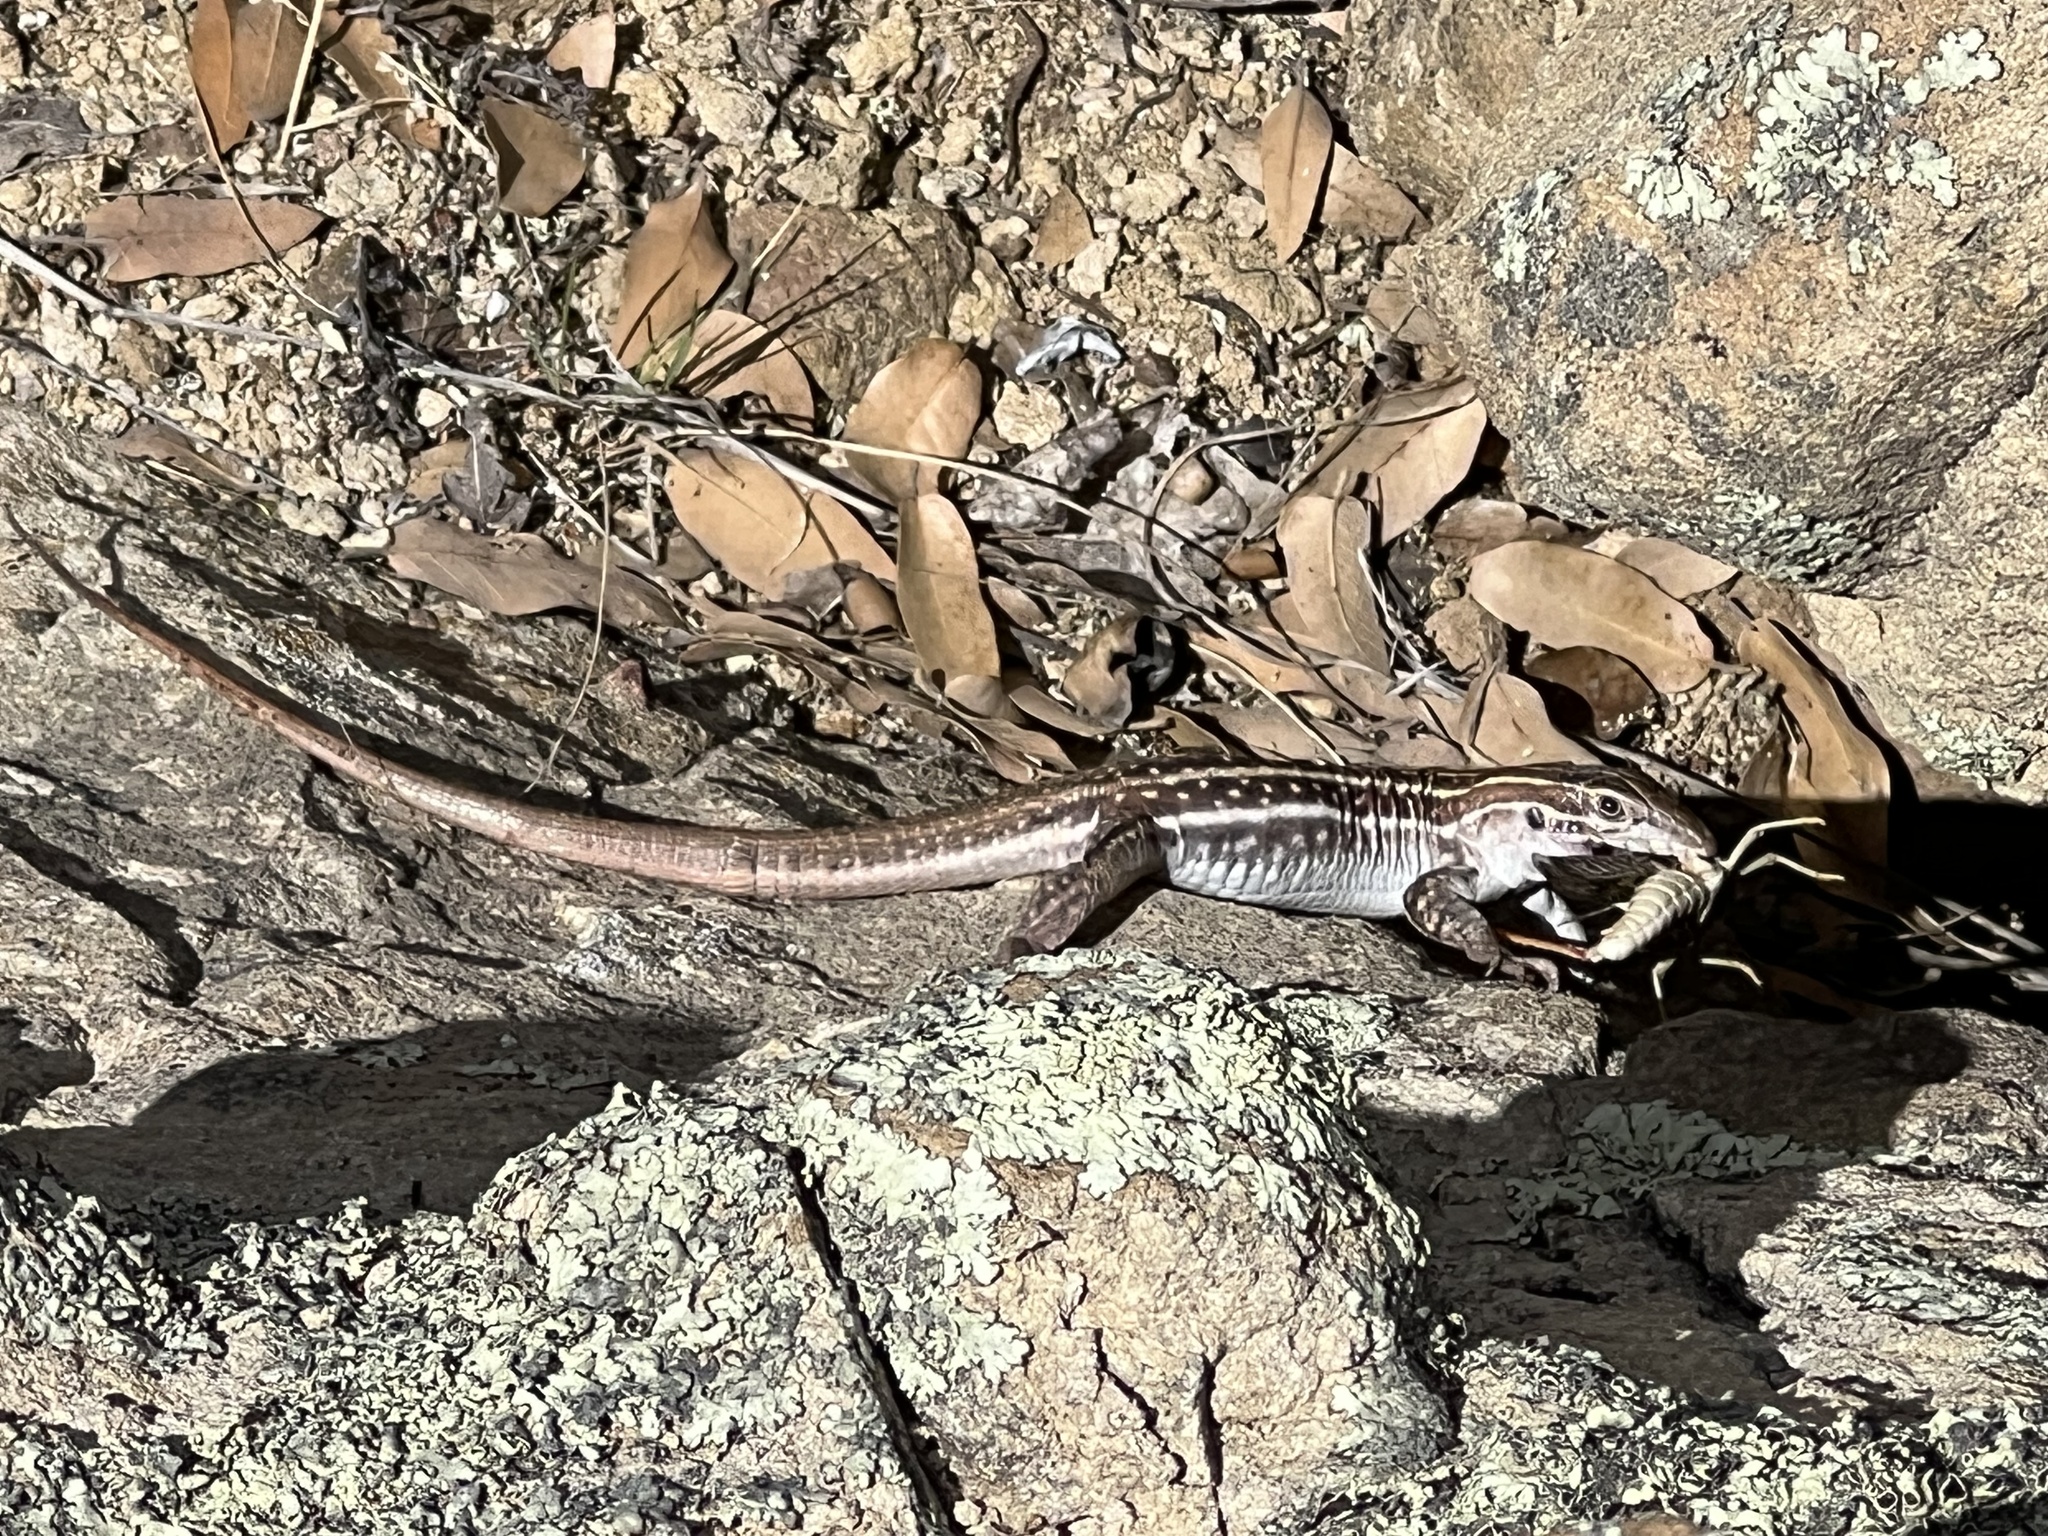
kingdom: Animalia
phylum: Chordata
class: Squamata
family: Teiidae
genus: Aspidoscelis
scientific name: Aspidoscelis exsanguis
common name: Chihuahuan spotted whiptail
